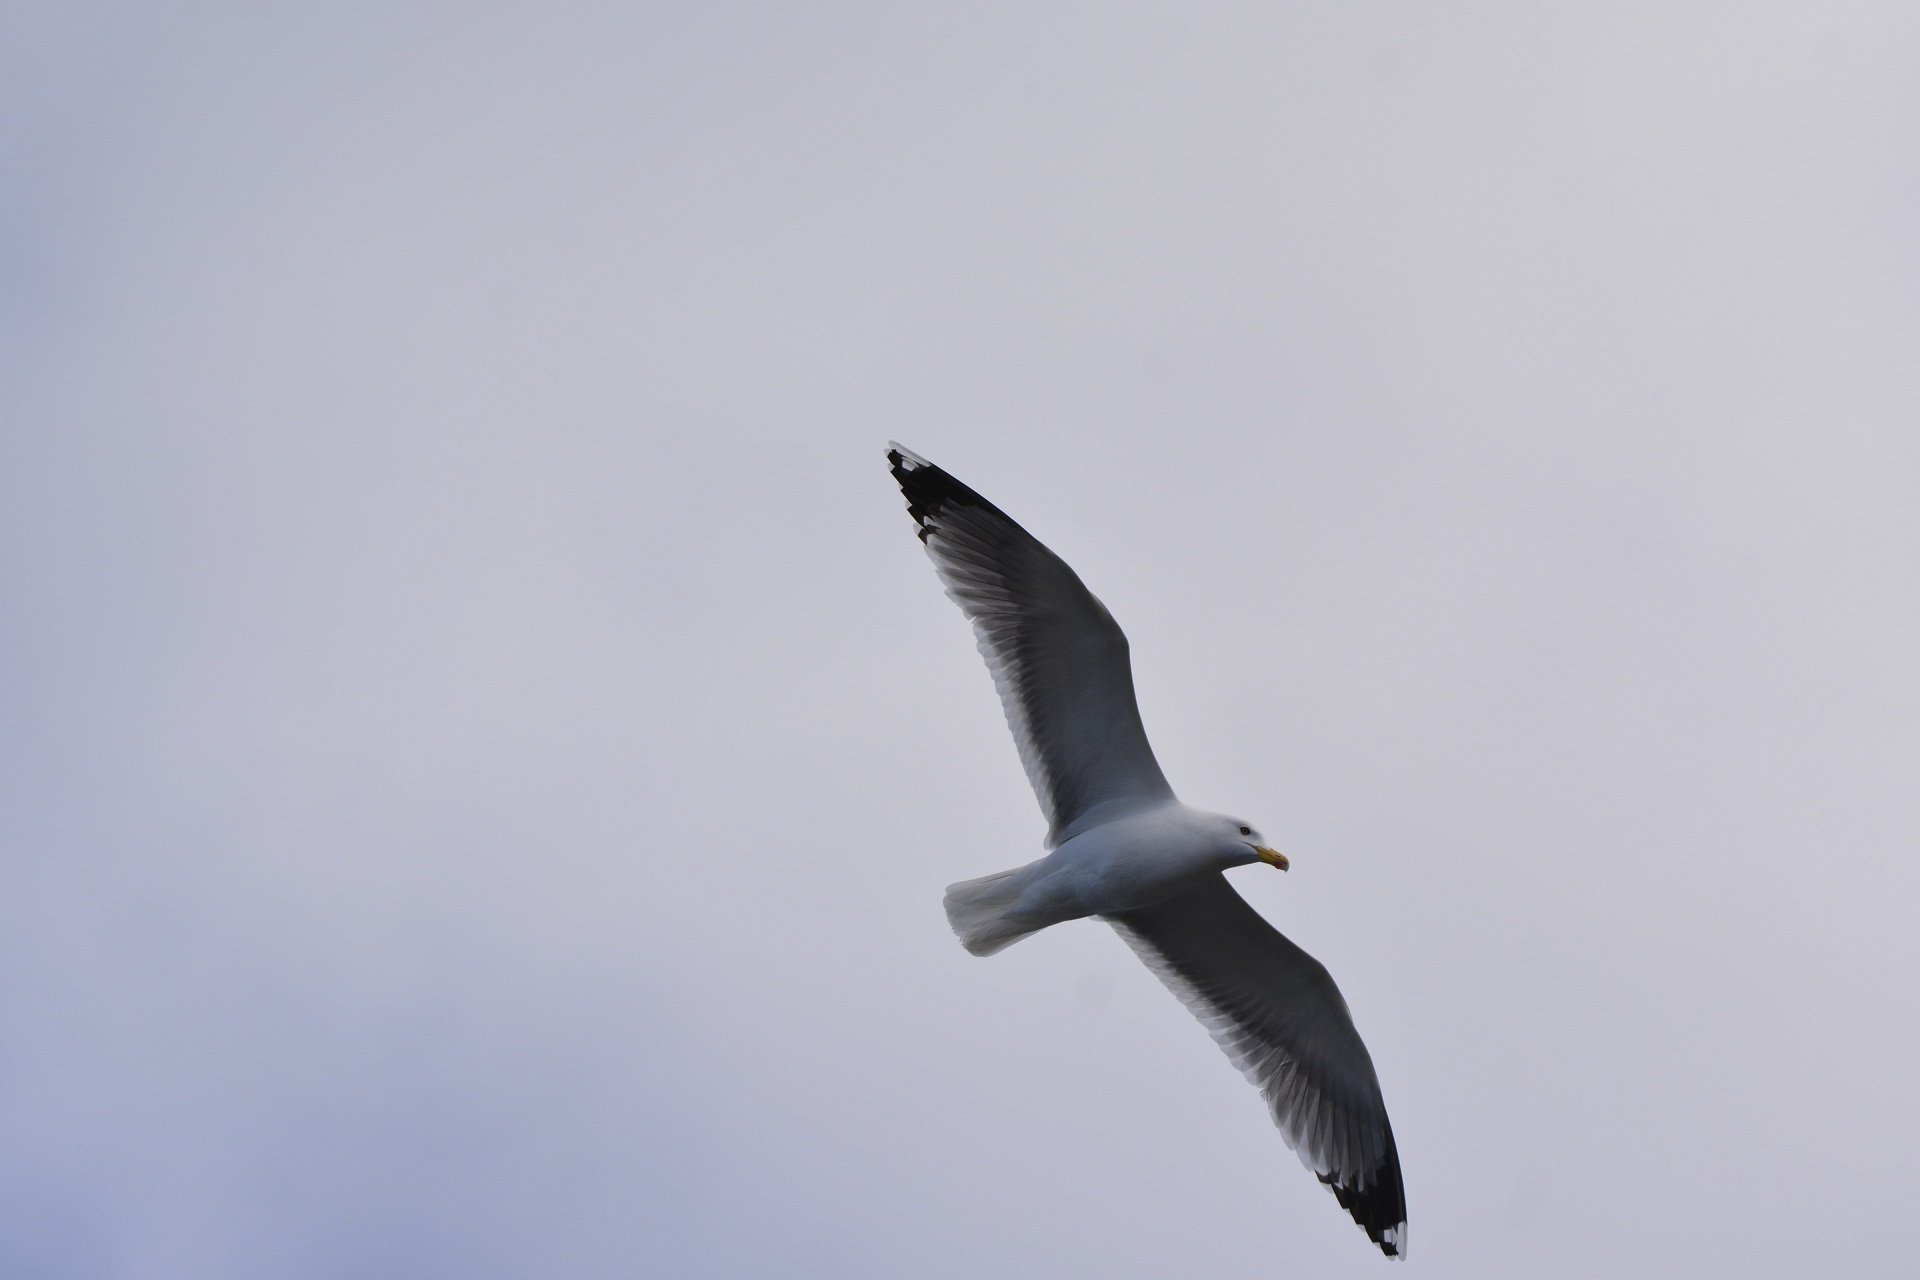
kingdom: Animalia
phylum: Chordata
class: Aves
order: Charadriiformes
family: Laridae
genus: Larus
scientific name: Larus michahellis
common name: Yellow-legged gull
